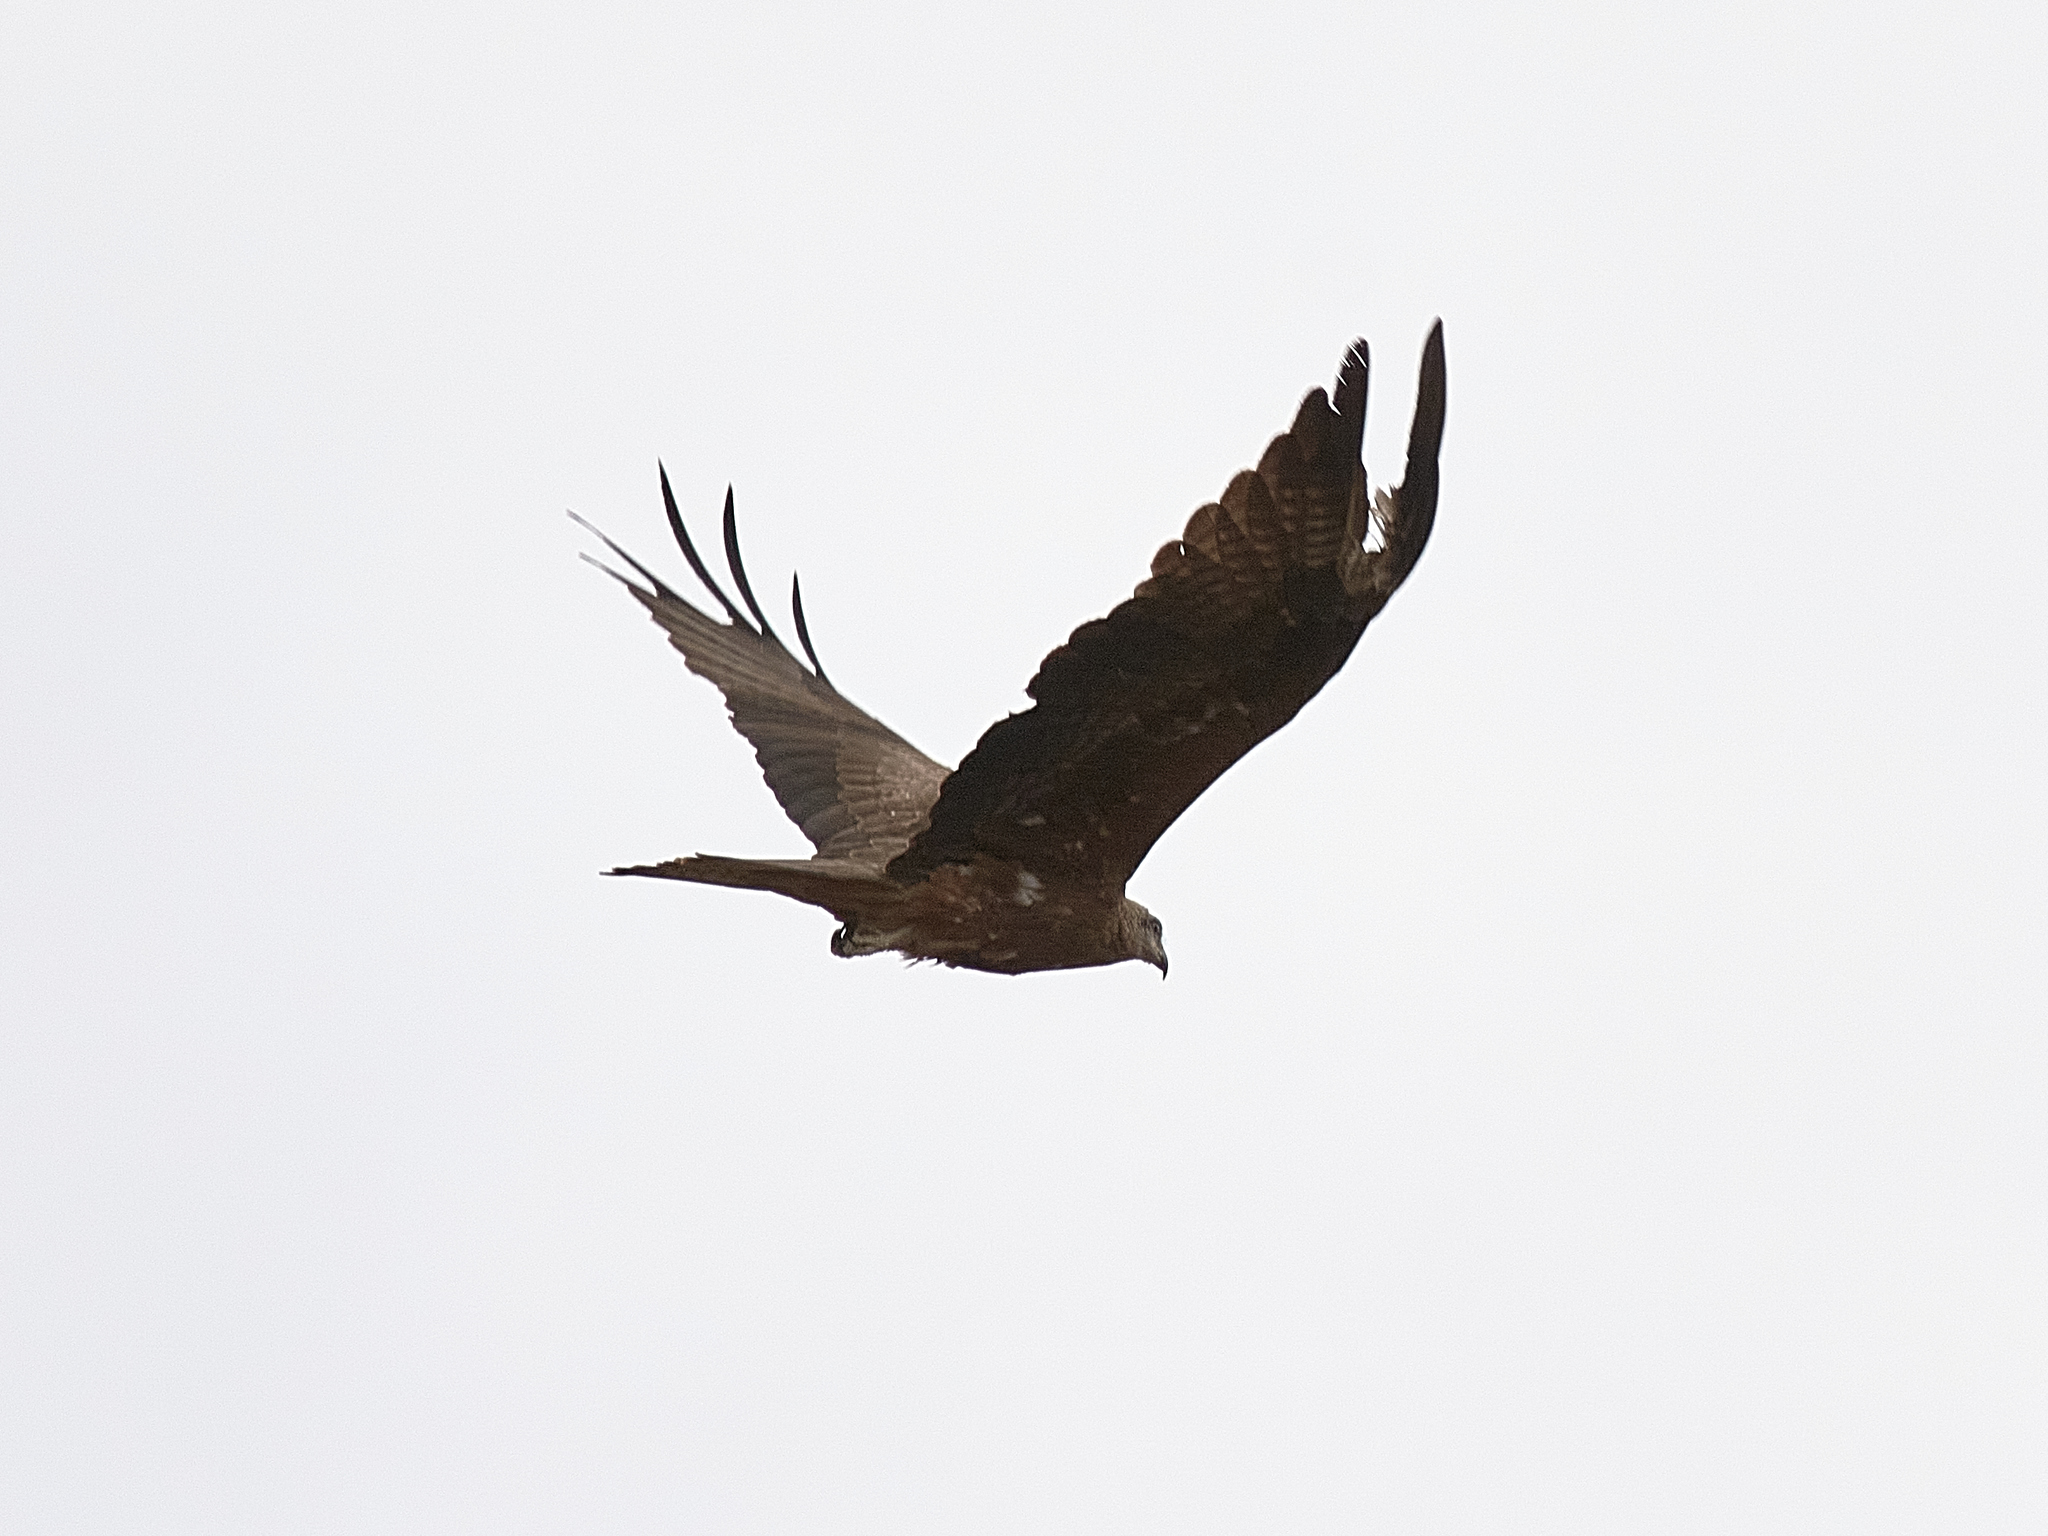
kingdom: Animalia
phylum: Chordata
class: Aves
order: Accipitriformes
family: Accipitridae
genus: Milvus
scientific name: Milvus migrans
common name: Black kite
